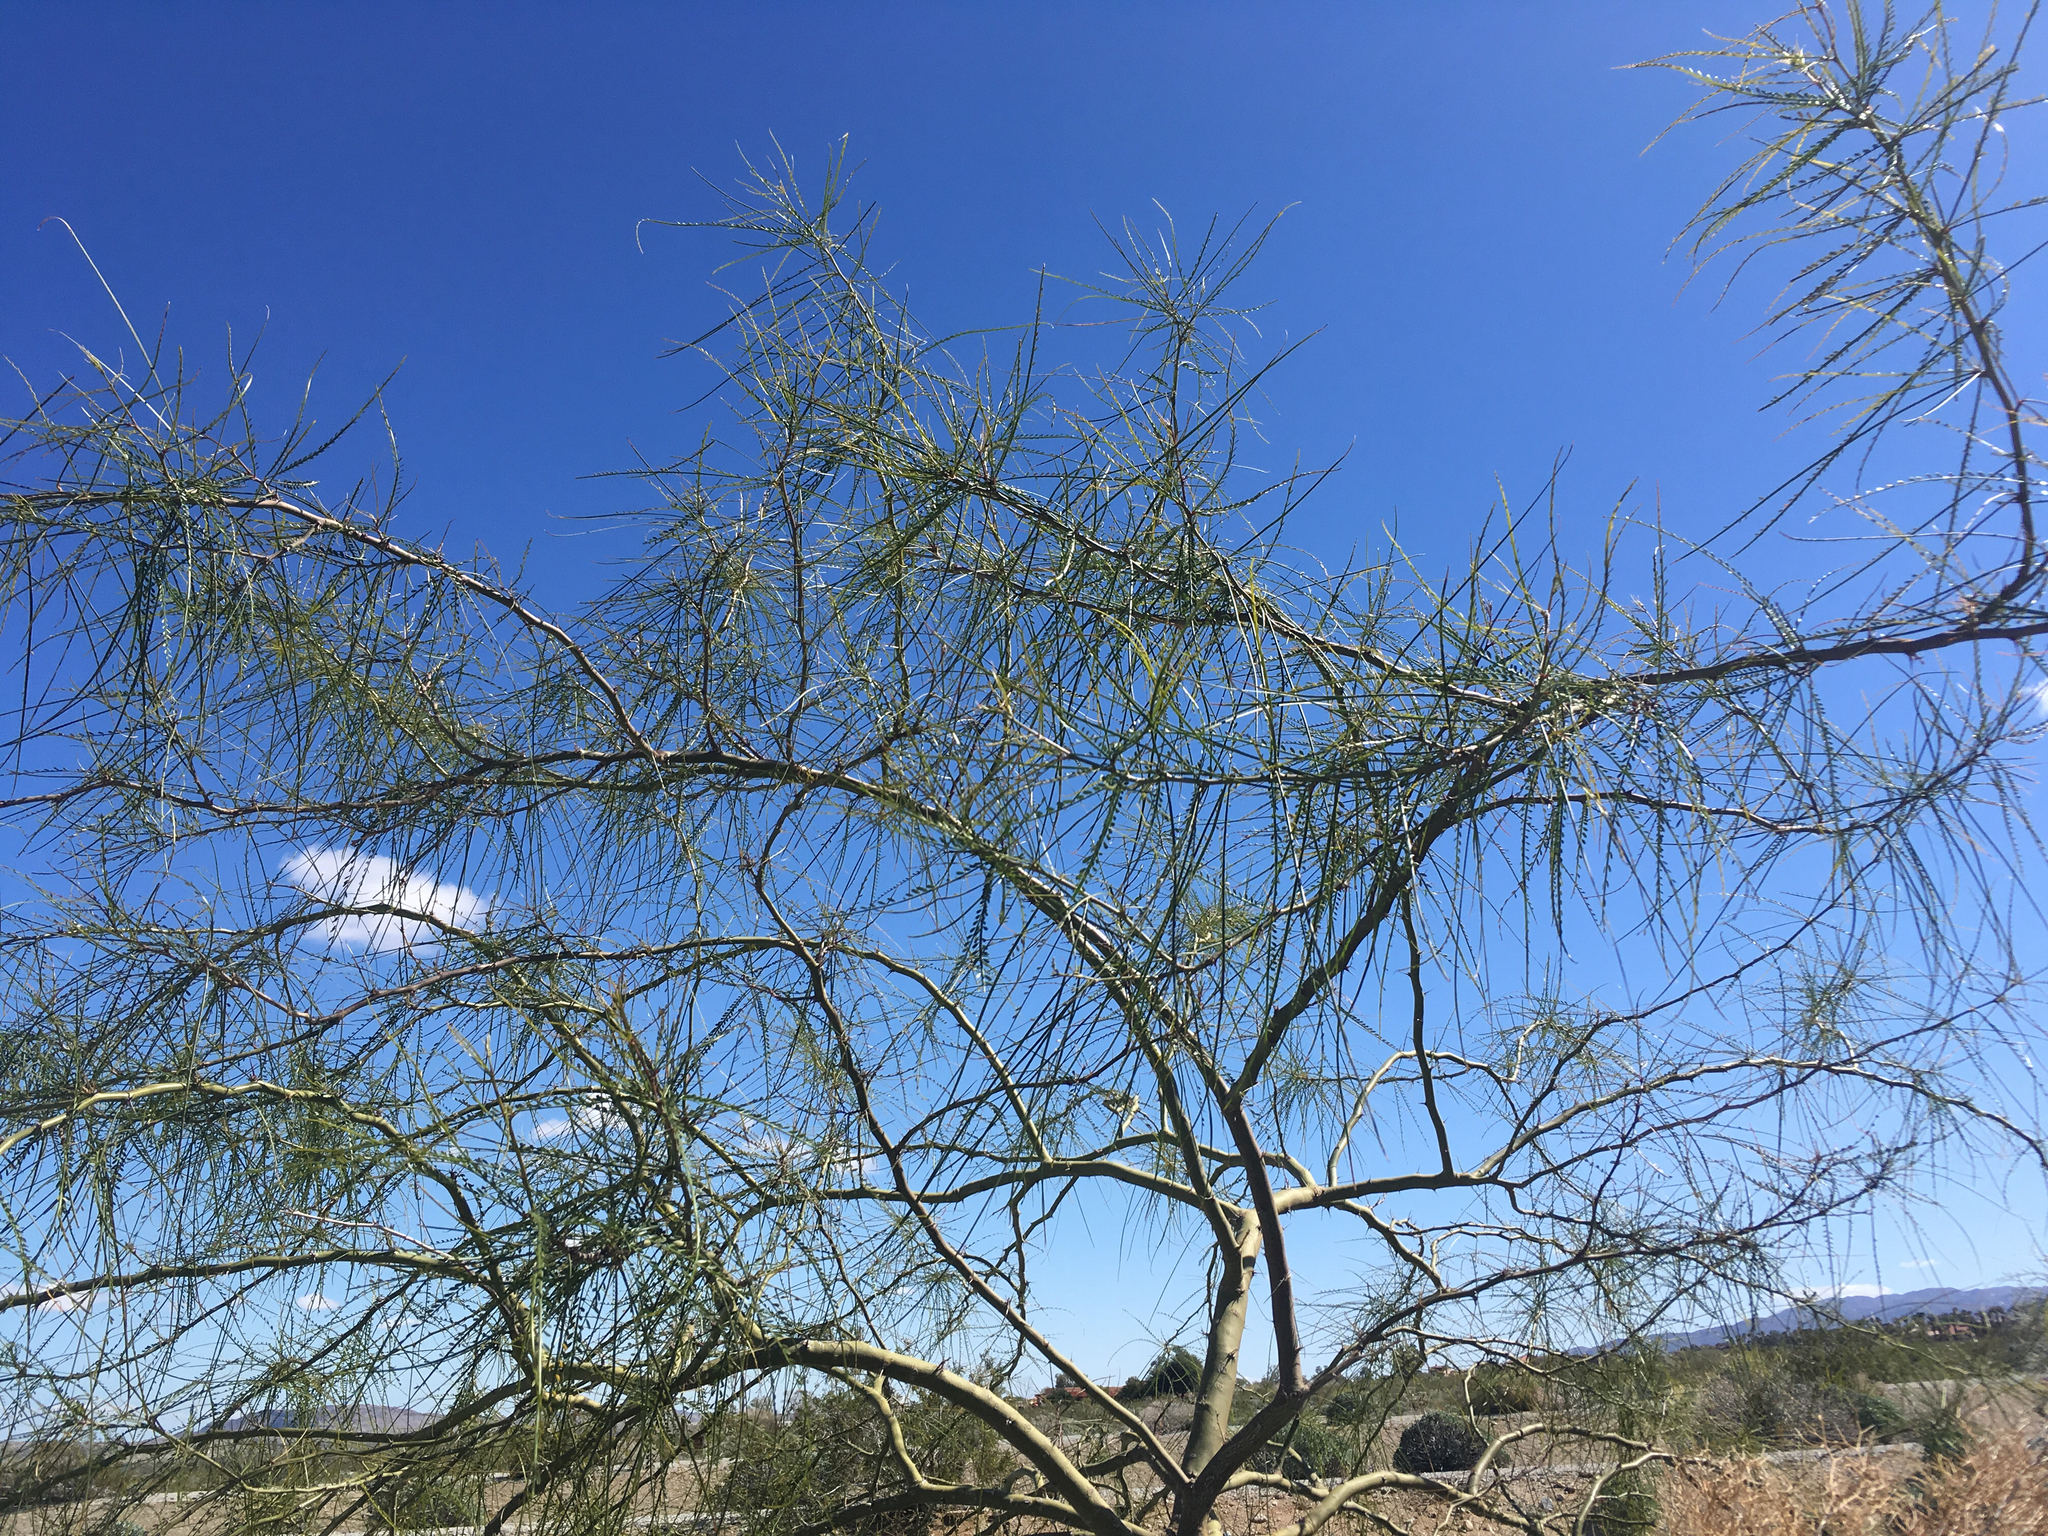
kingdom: Plantae
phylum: Tracheophyta
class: Magnoliopsida
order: Fabales
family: Fabaceae
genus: Parkinsonia
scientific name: Parkinsonia aculeata
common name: Jerusalem thorn
